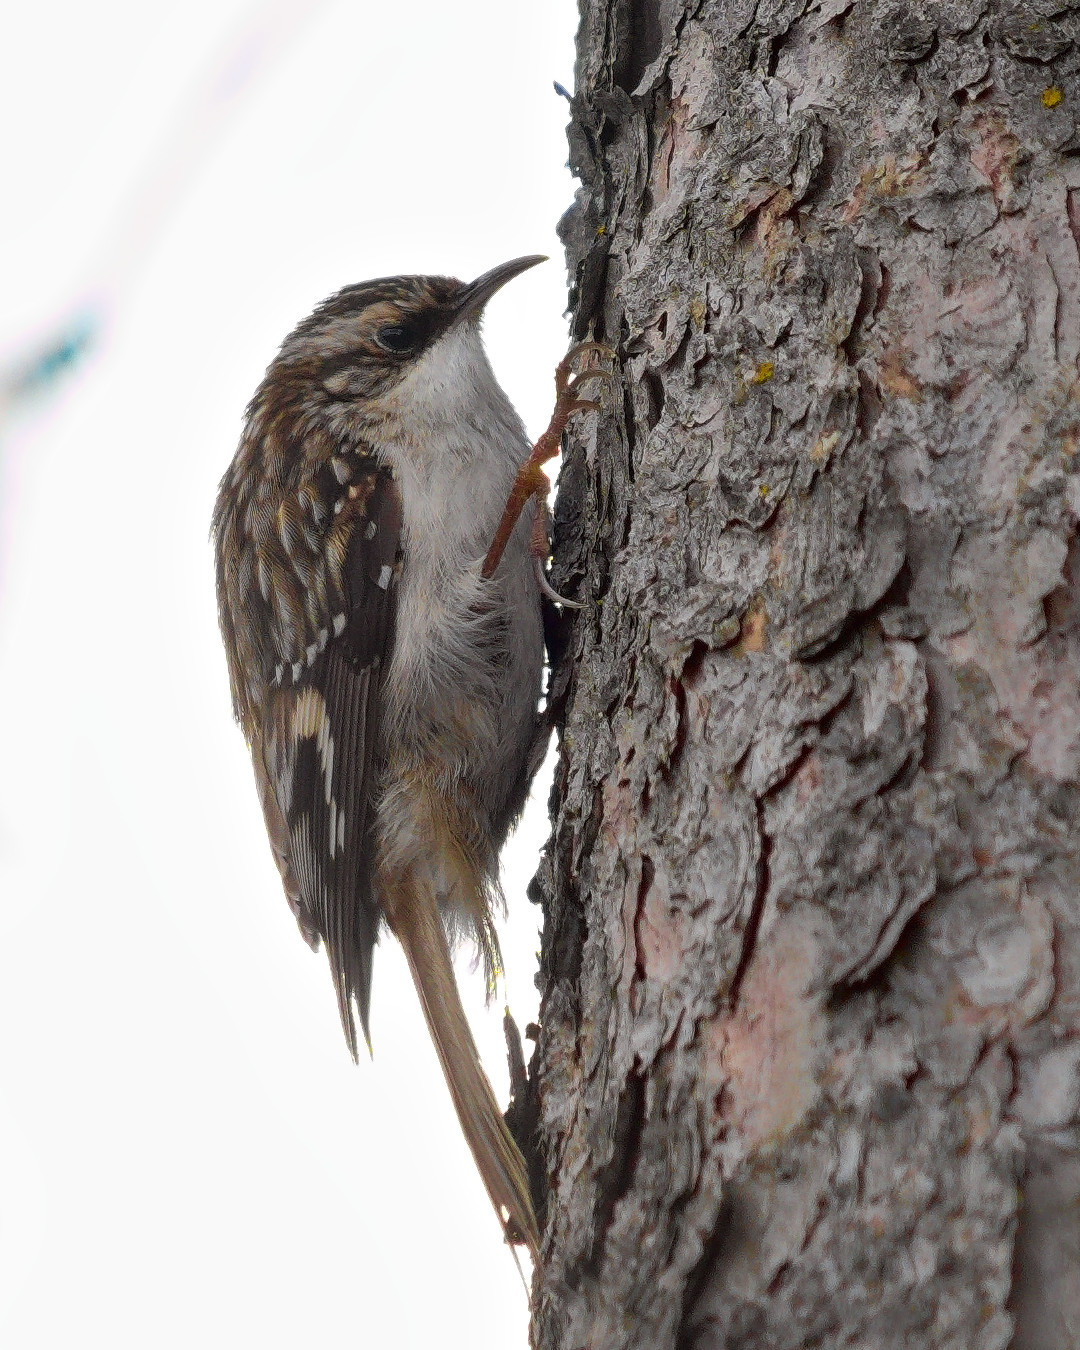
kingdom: Animalia
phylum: Chordata
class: Aves
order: Passeriformes
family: Certhiidae
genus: Certhia
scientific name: Certhia americana
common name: Brown creeper
